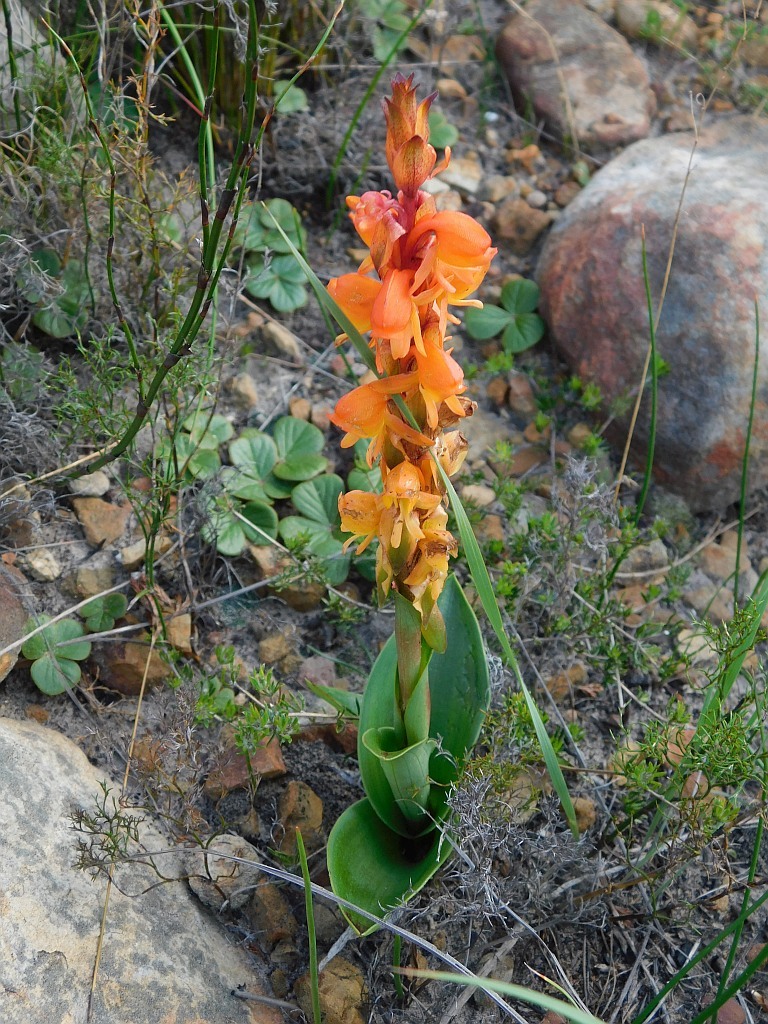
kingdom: Plantae
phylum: Tracheophyta
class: Liliopsida
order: Asparagales
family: Orchidaceae
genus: Satyrium
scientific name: Satyrium coriifolium
